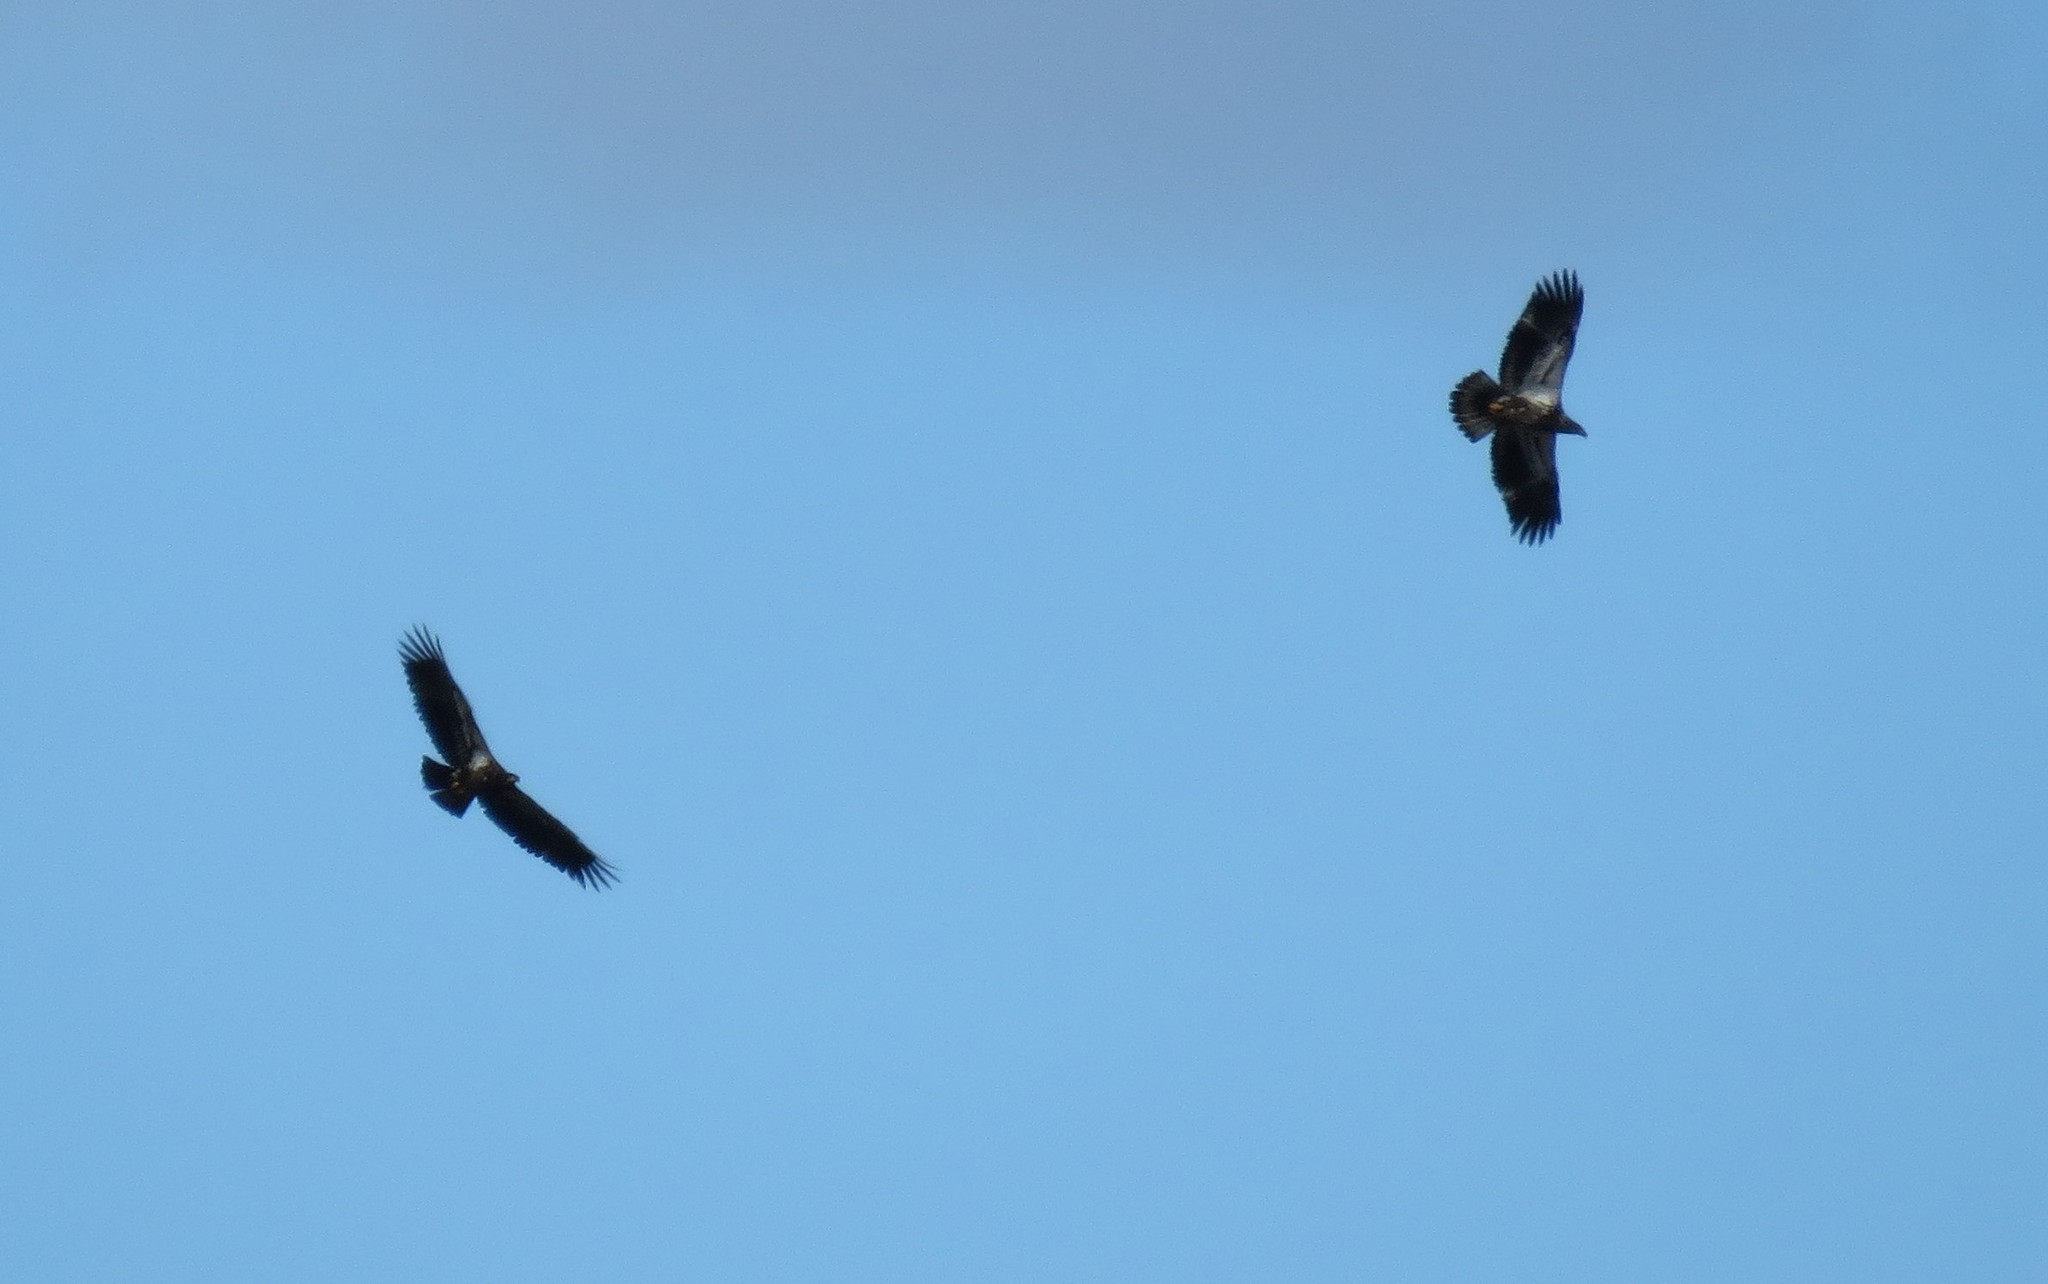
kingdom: Animalia
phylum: Chordata
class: Aves
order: Accipitriformes
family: Accipitridae
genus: Haliaeetus
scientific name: Haliaeetus leucocephalus
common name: Bald eagle
